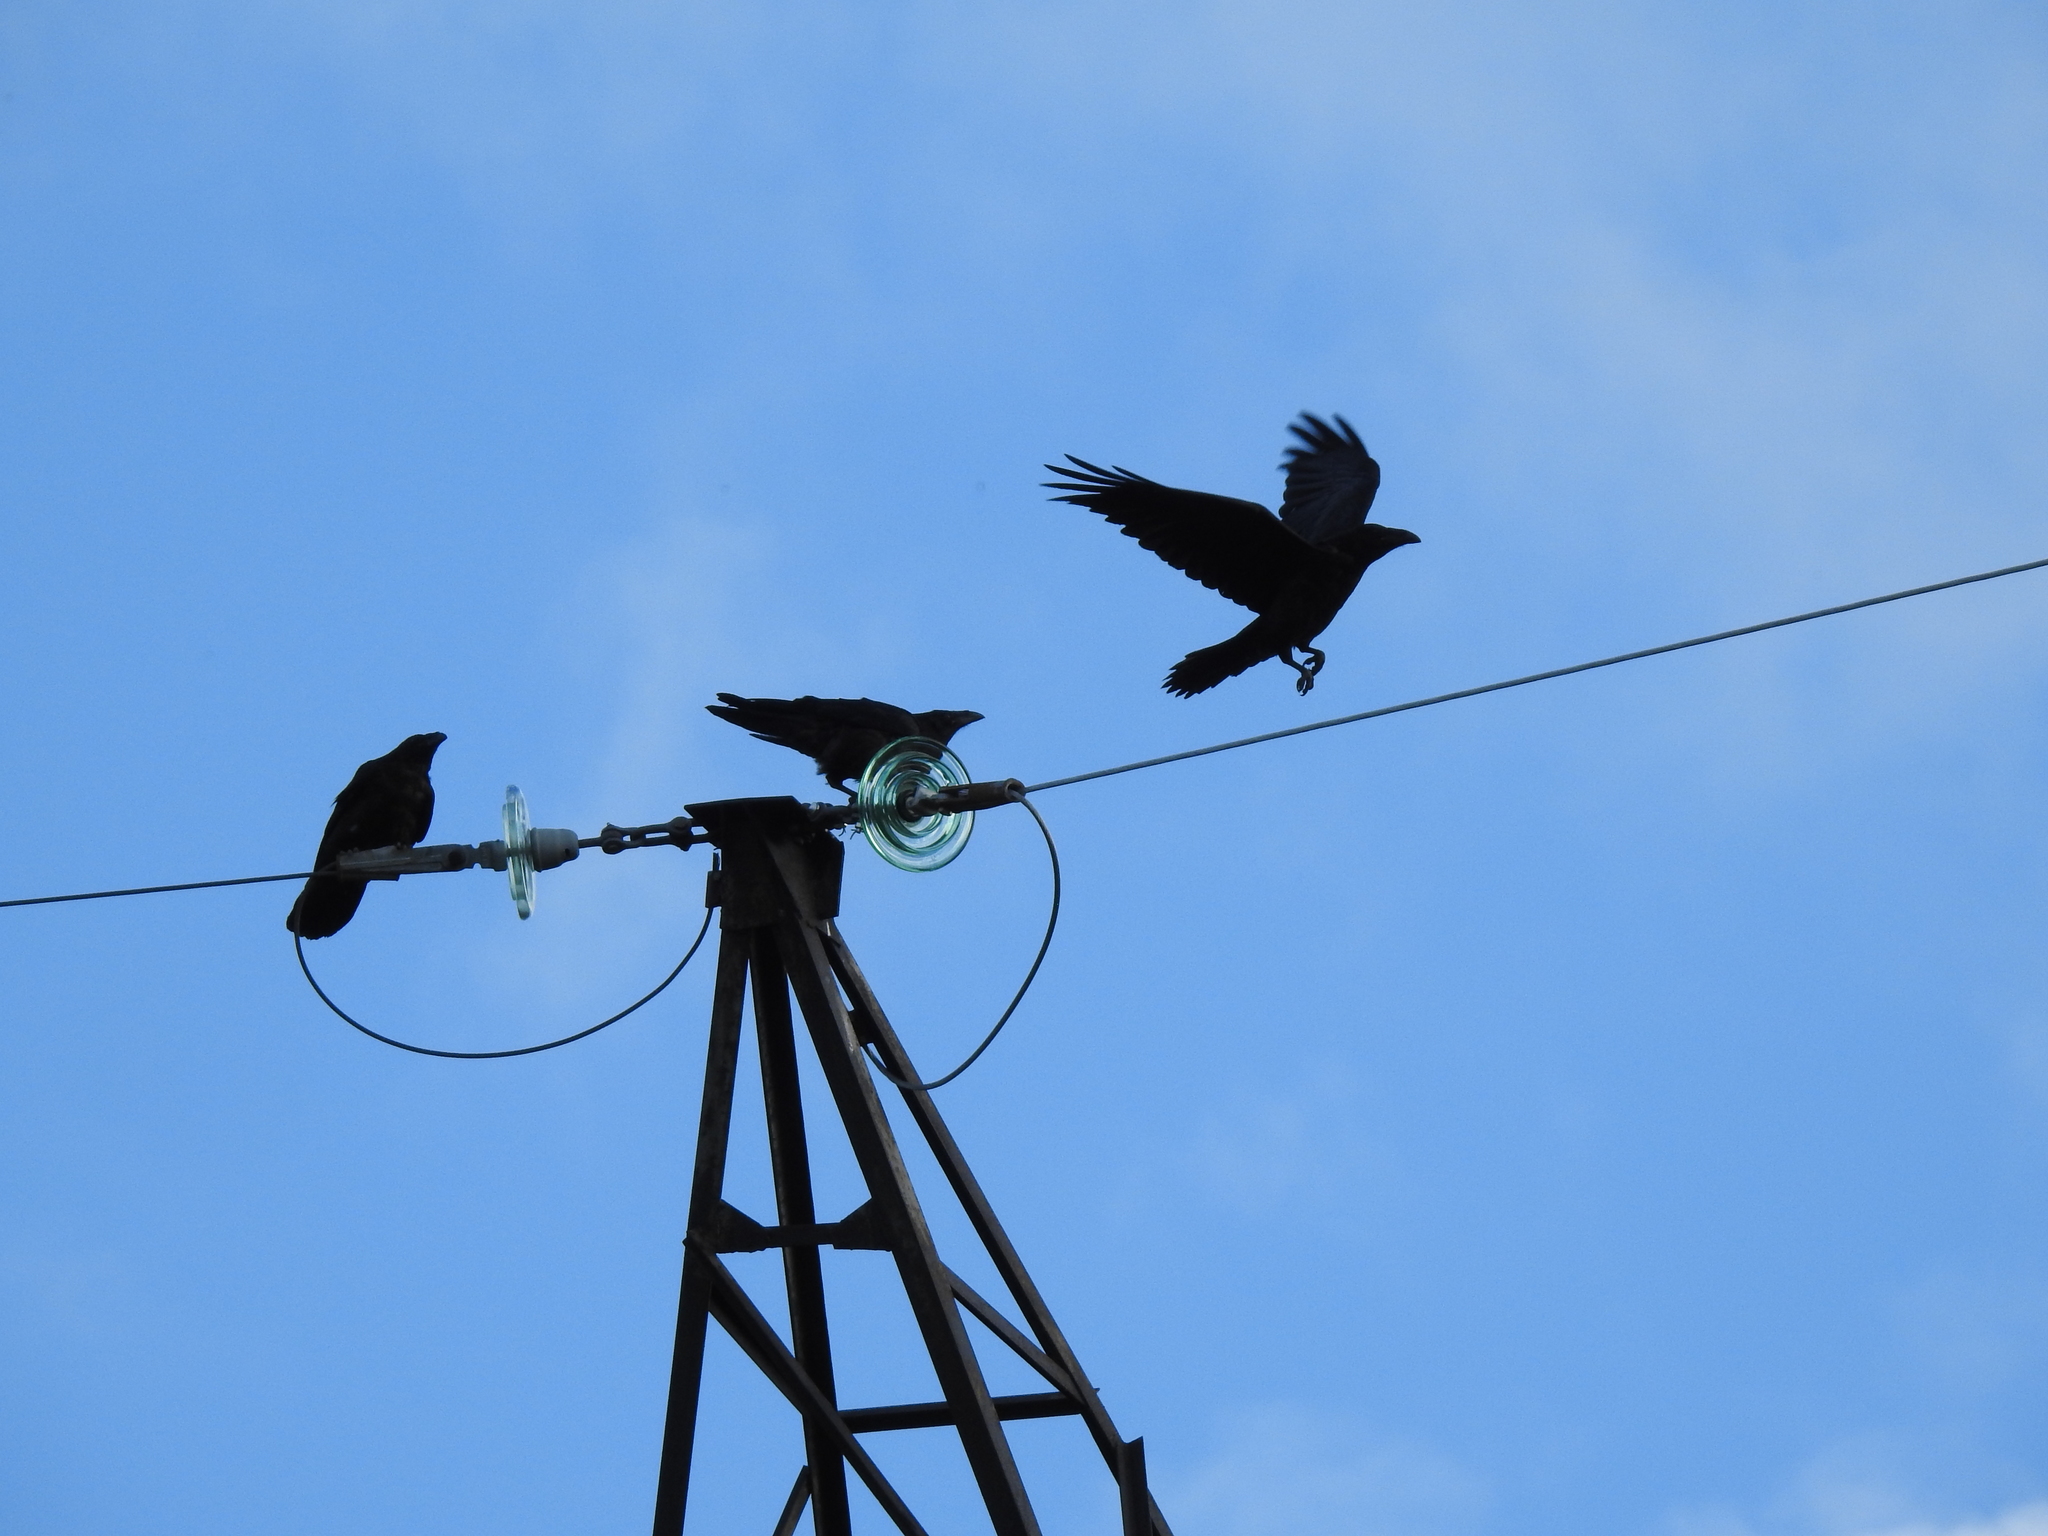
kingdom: Animalia
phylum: Chordata
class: Aves
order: Passeriformes
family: Corvidae
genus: Corvus
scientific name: Corvus corax
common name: Common raven
